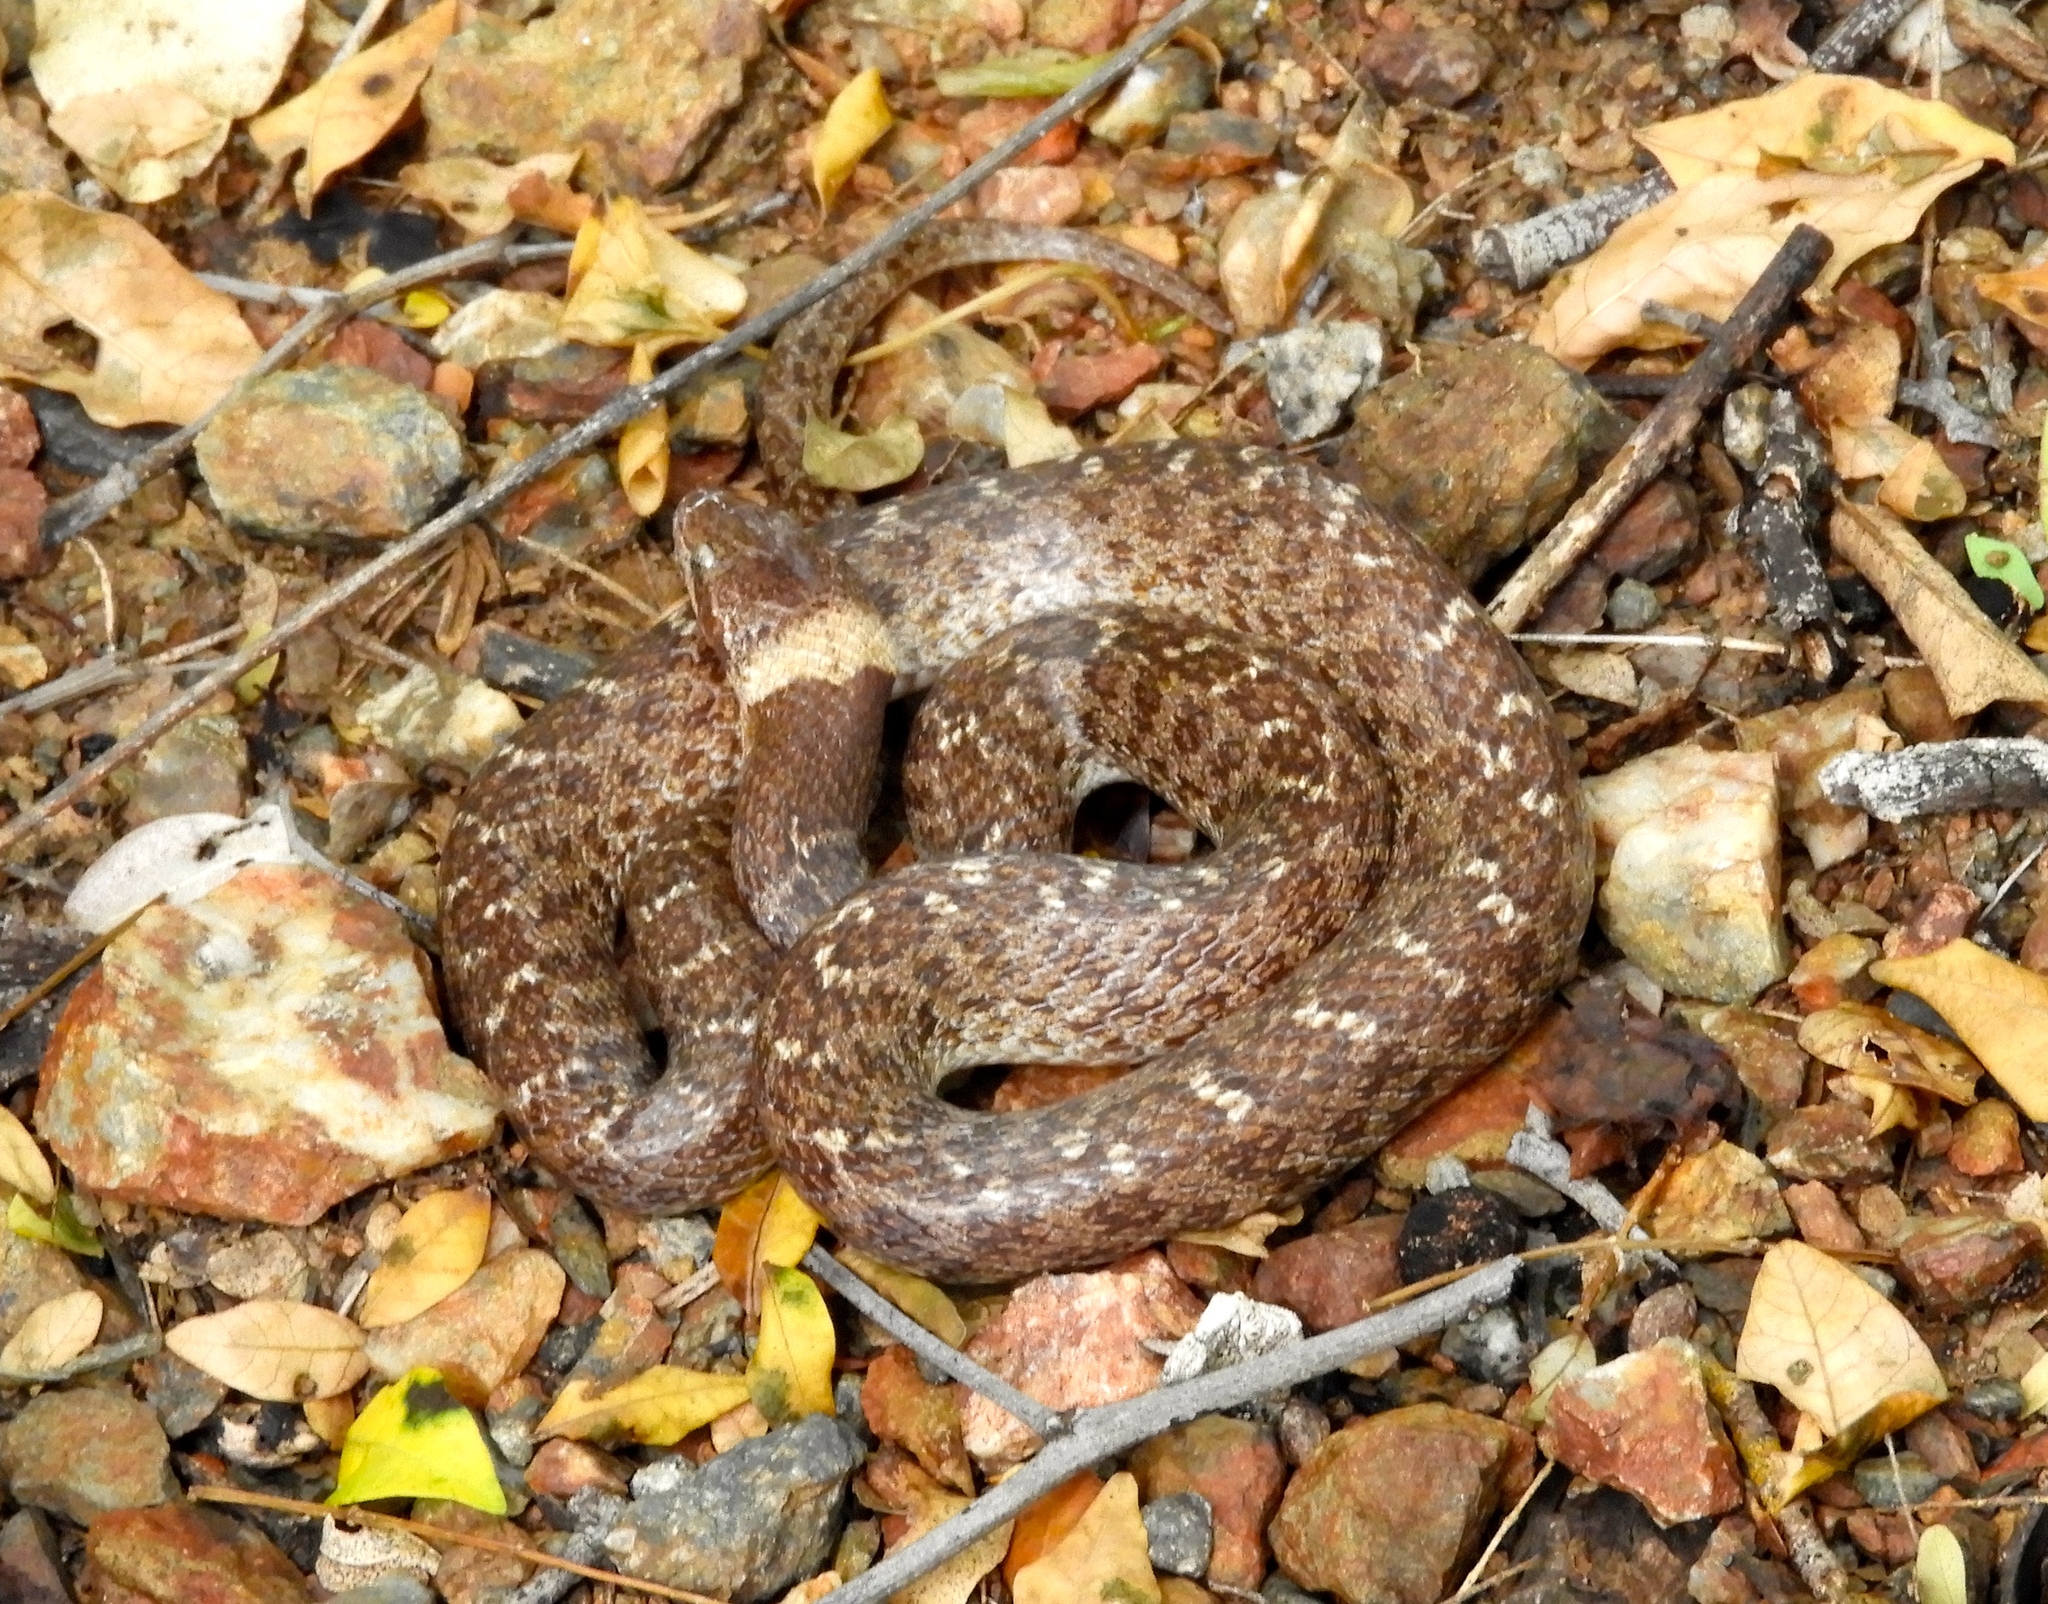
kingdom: Animalia
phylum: Chordata
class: Squamata
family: Colubridae
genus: Hypsiglena
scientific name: Hypsiglena torquata
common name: Night snake
